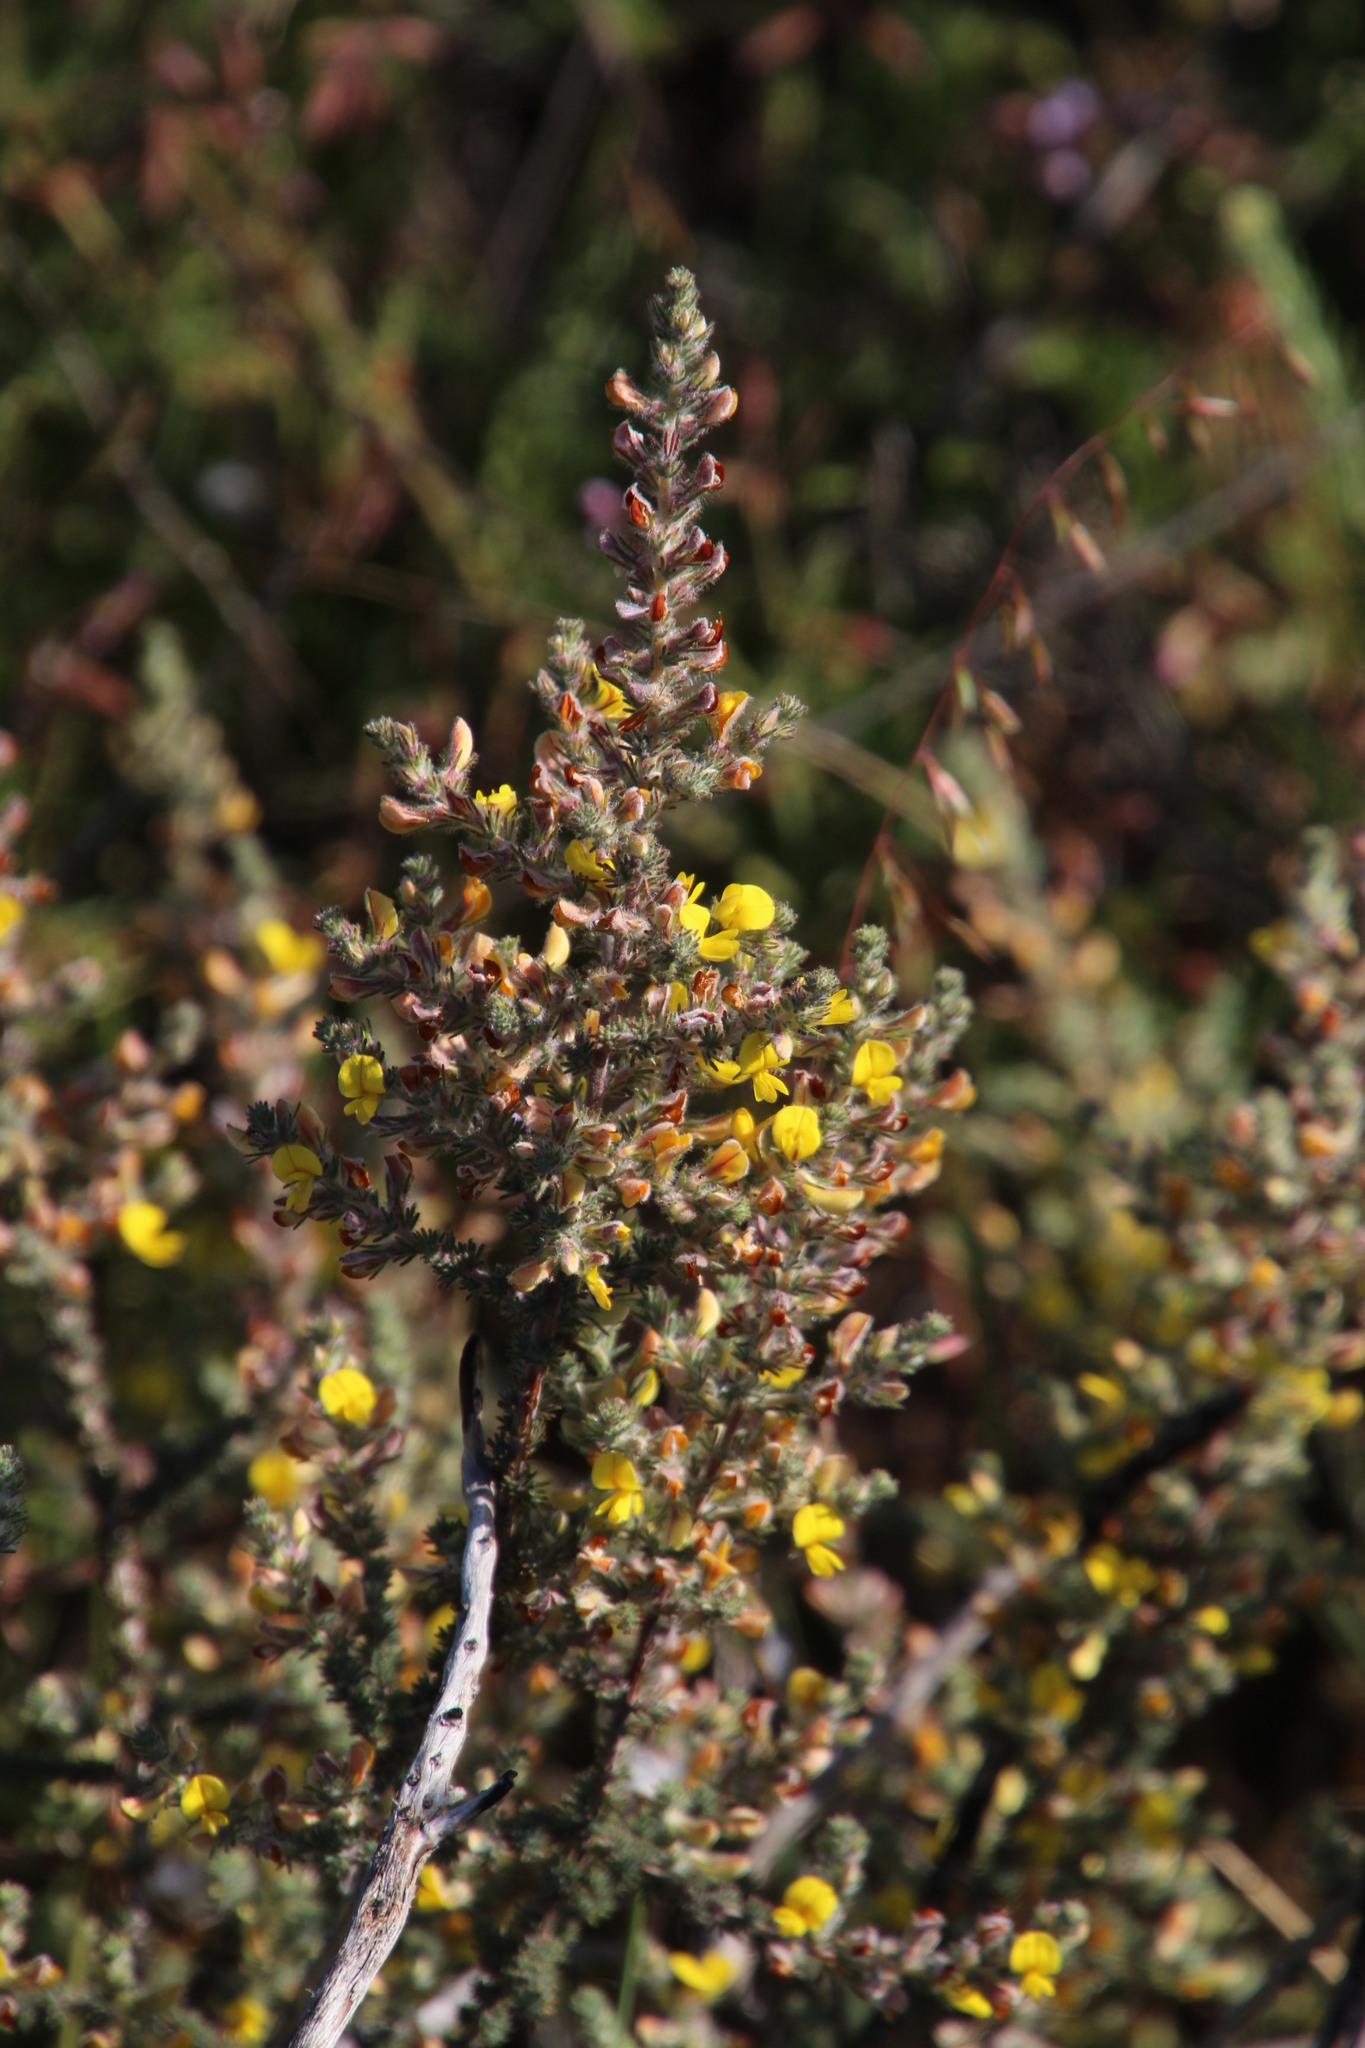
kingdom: Plantae
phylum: Tracheophyta
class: Magnoliopsida
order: Fabales
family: Fabaceae
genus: Aspalathus
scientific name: Aspalathus flexuosa
